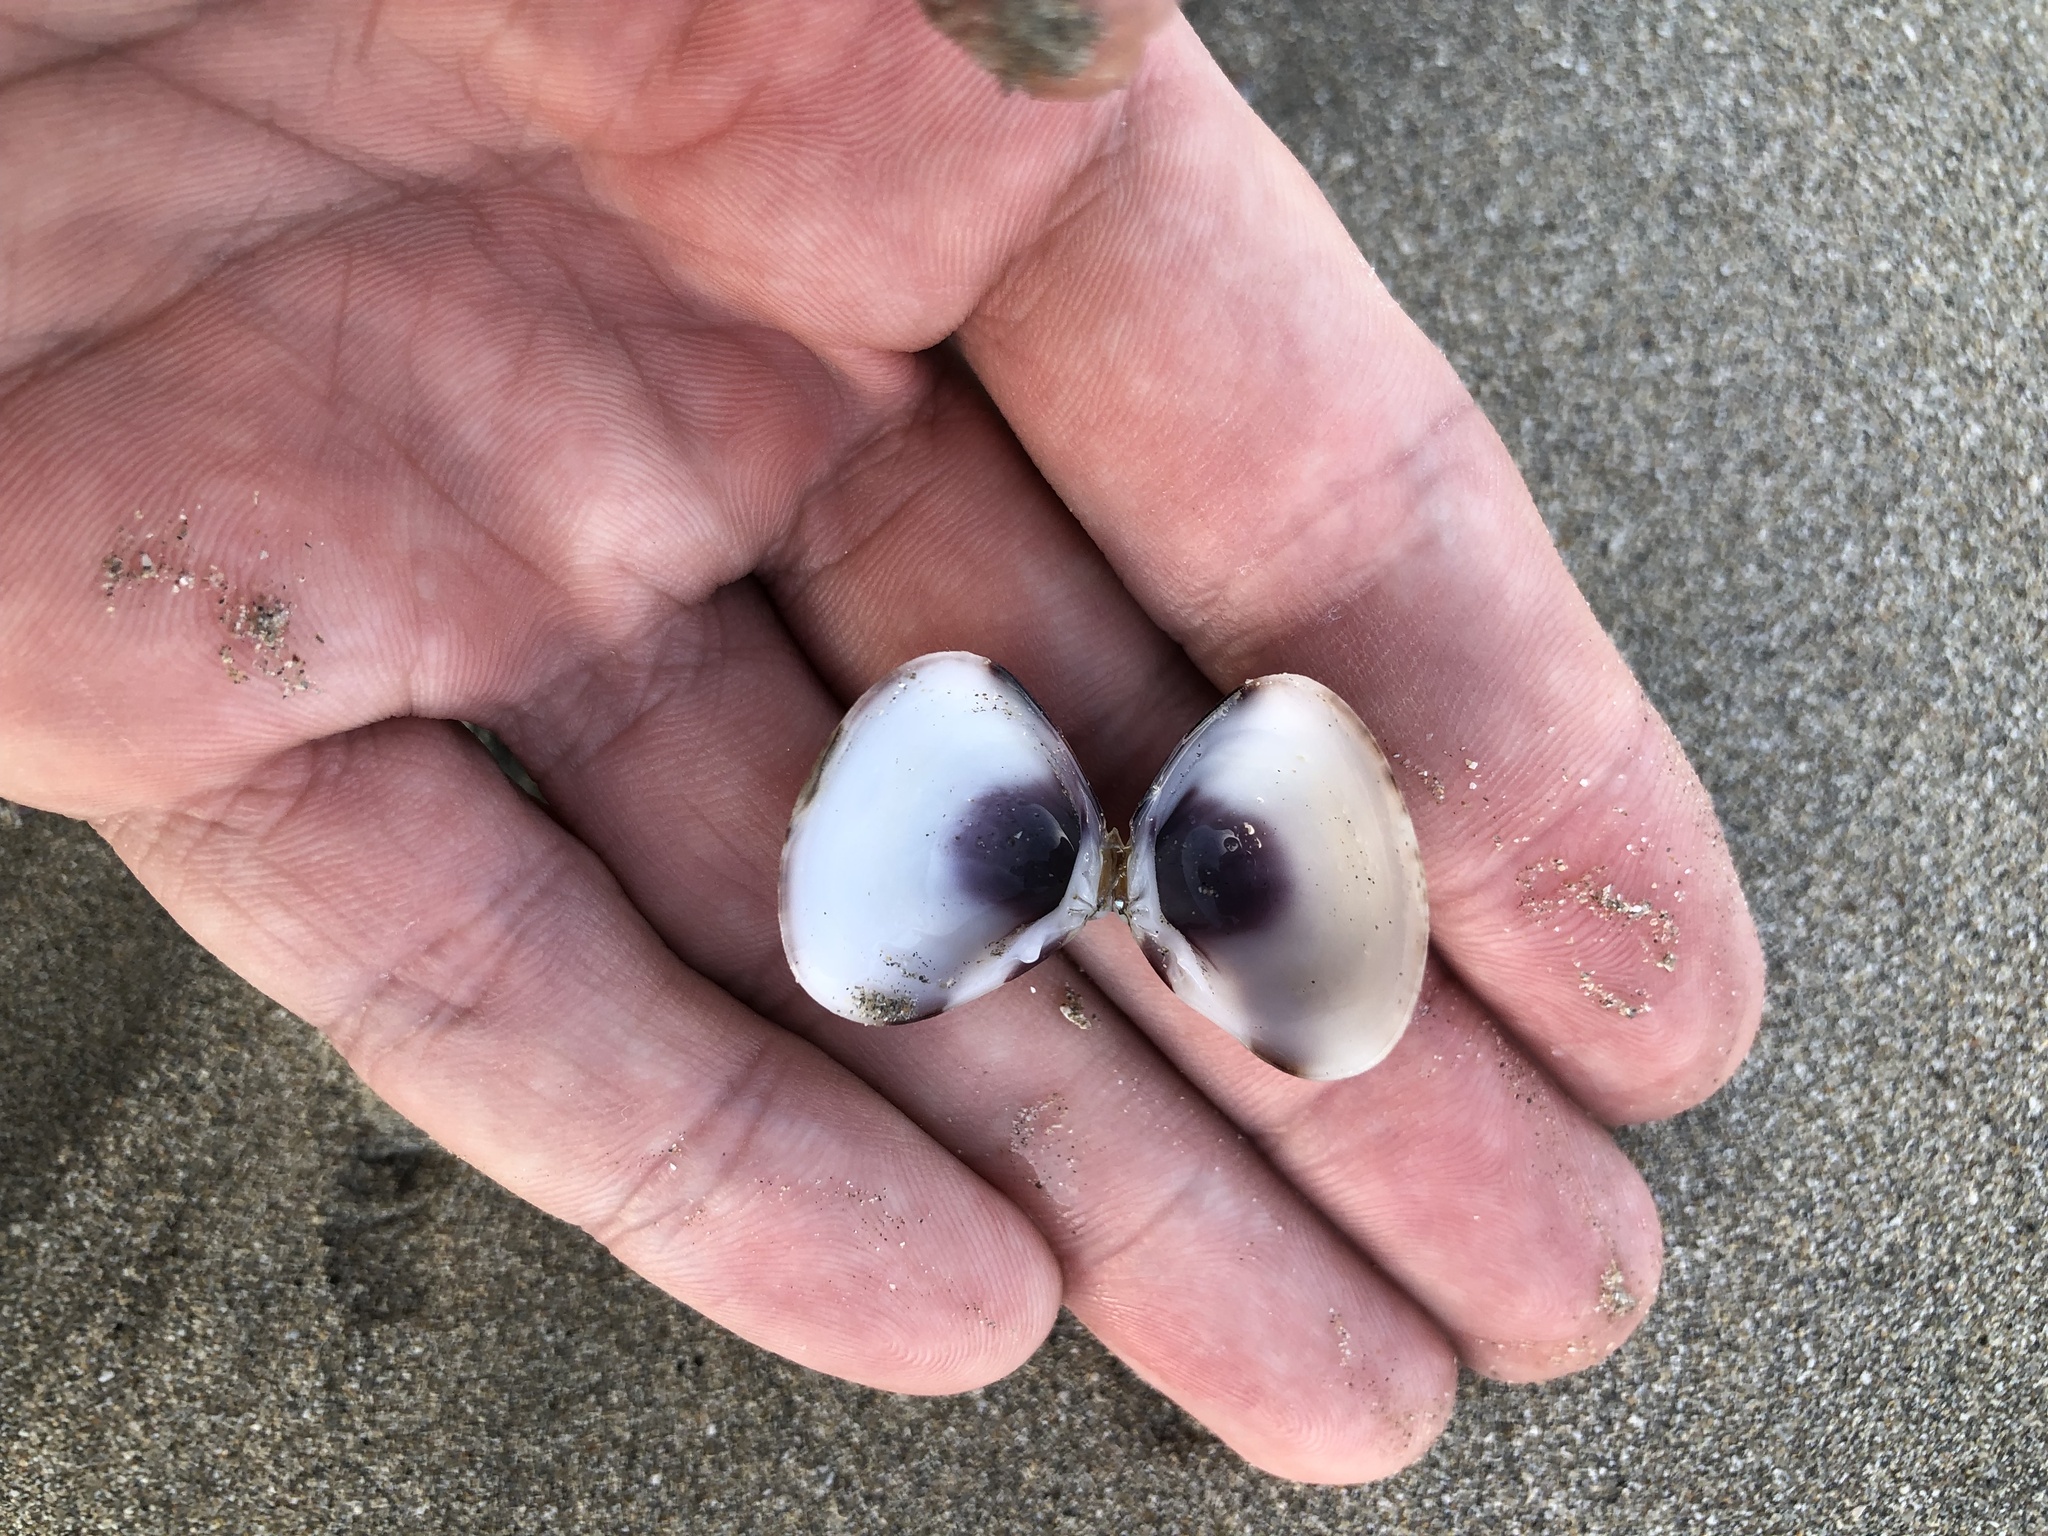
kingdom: Animalia
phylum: Mollusca
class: Bivalvia
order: Venerida
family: Veneridae
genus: Tivela
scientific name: Tivela mactroides
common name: Trigonal tivela
